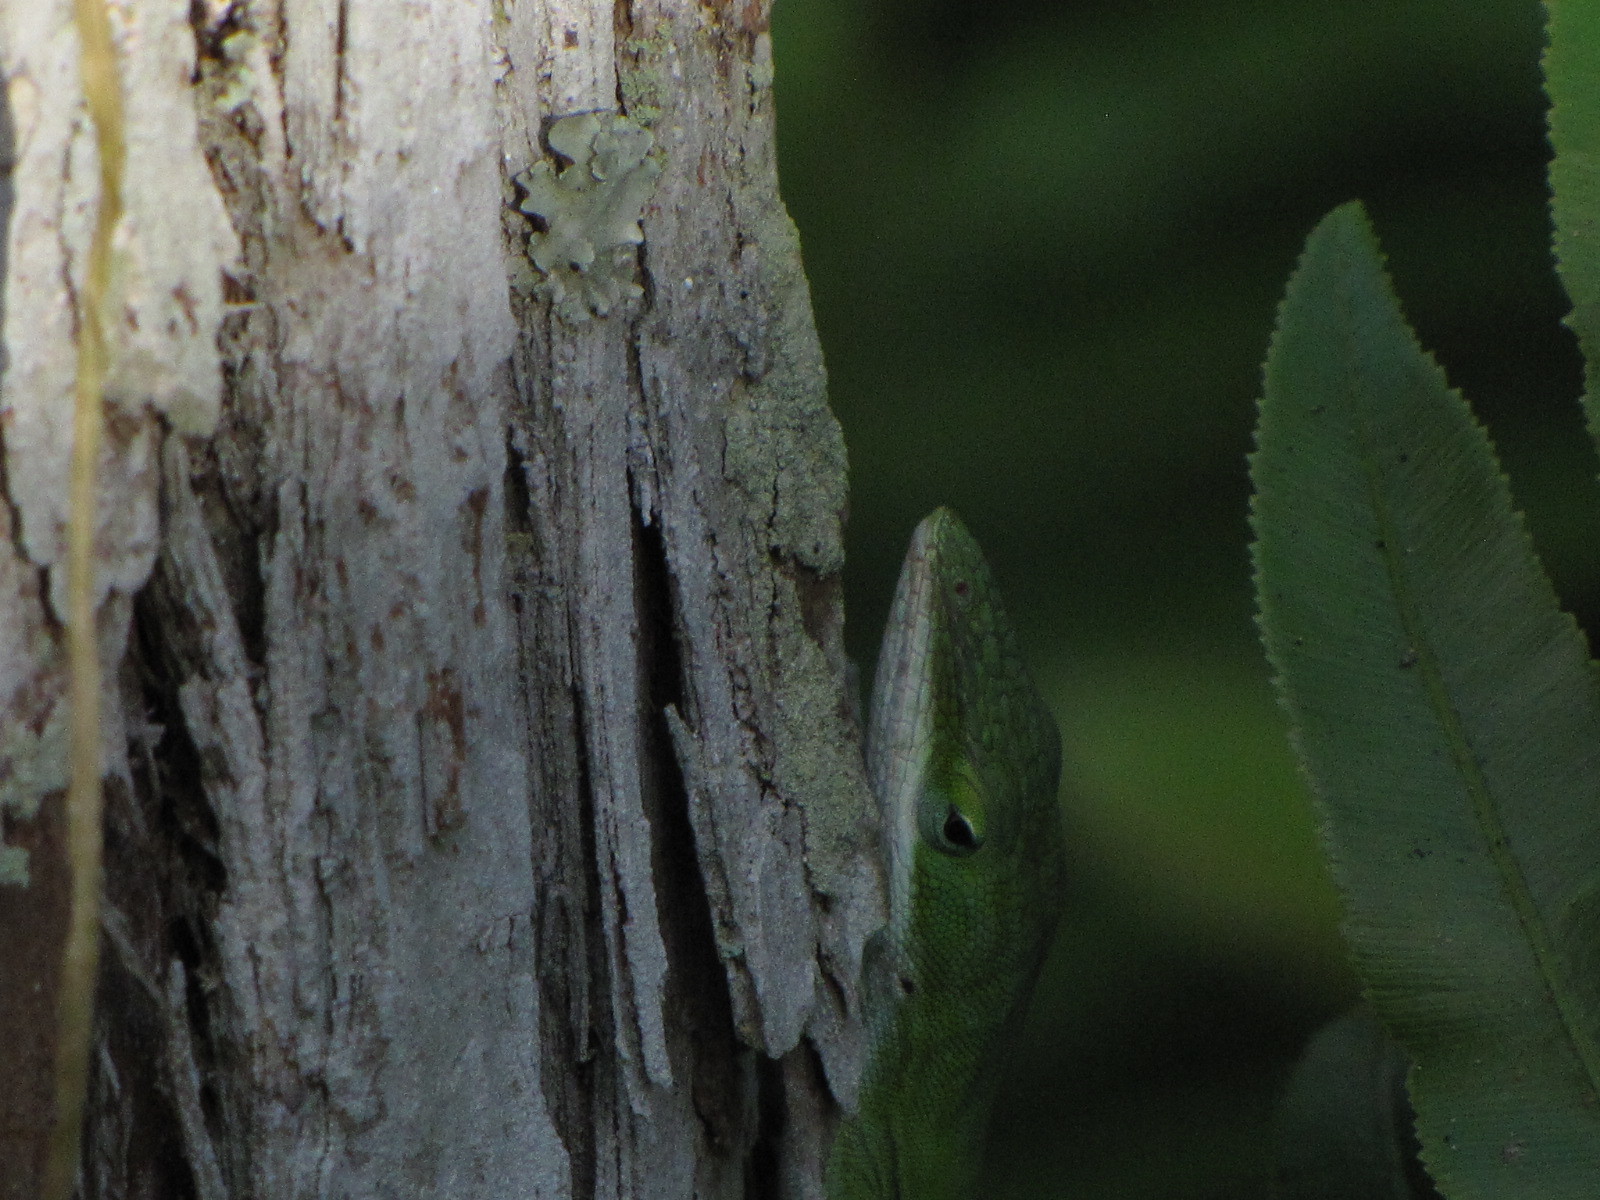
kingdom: Animalia
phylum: Chordata
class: Squamata
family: Dactyloidae
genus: Anolis
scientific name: Anolis carolinensis
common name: Green anole
